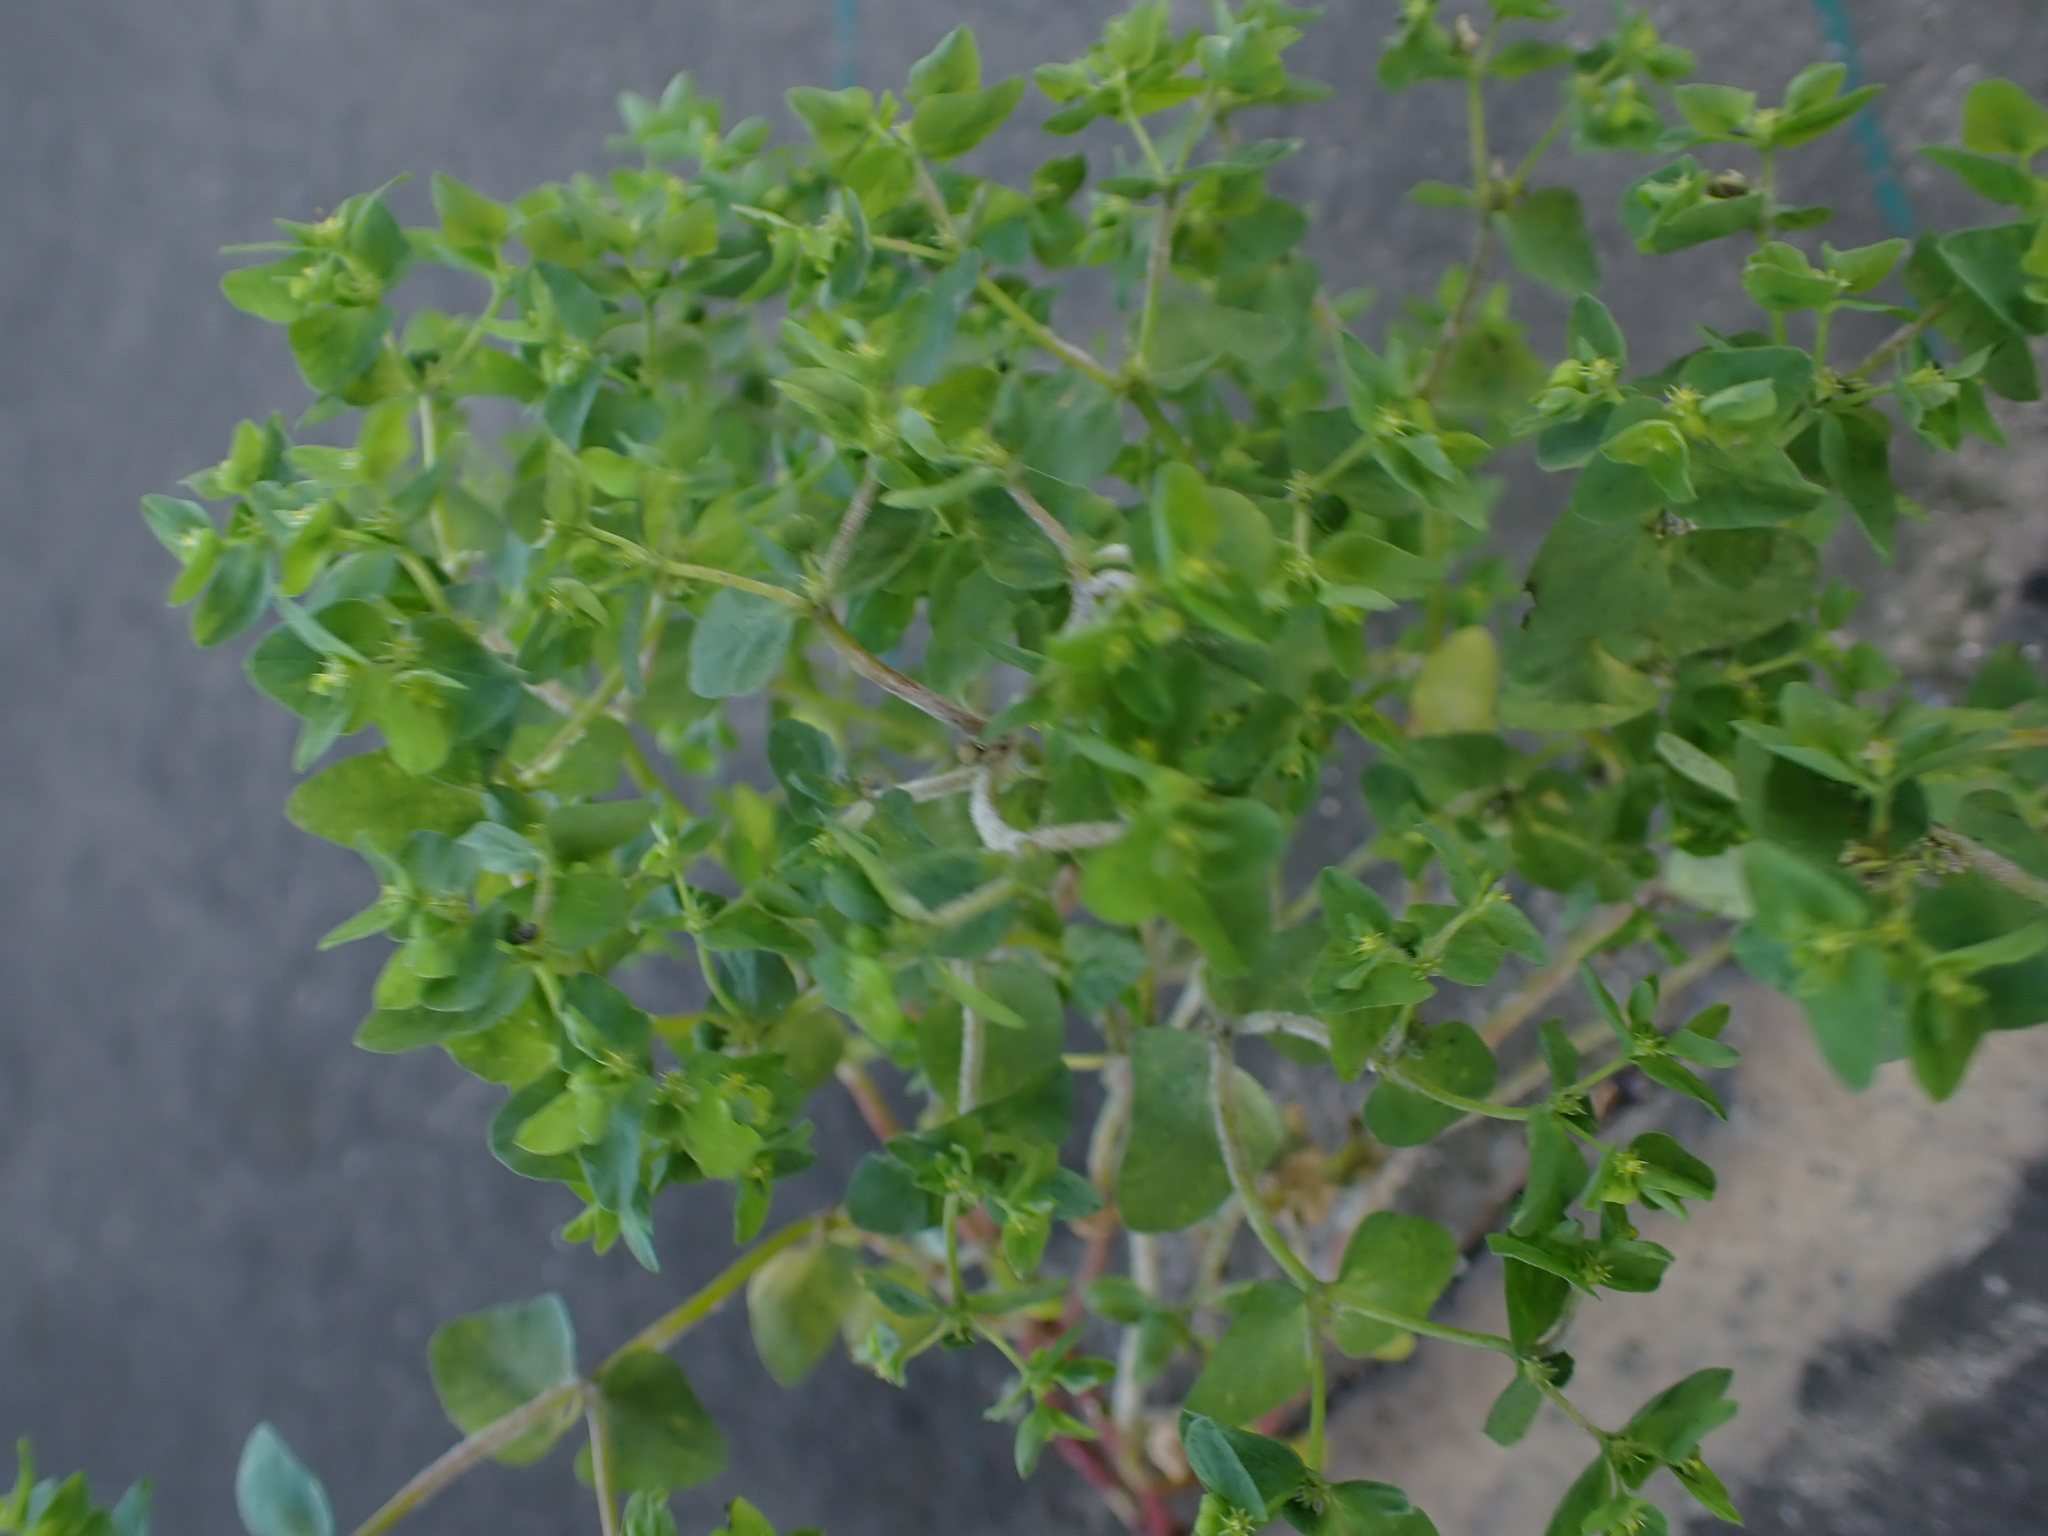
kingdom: Plantae
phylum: Tracheophyta
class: Magnoliopsida
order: Malpighiales
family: Euphorbiaceae
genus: Euphorbia
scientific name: Euphorbia peplus
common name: Petty spurge
